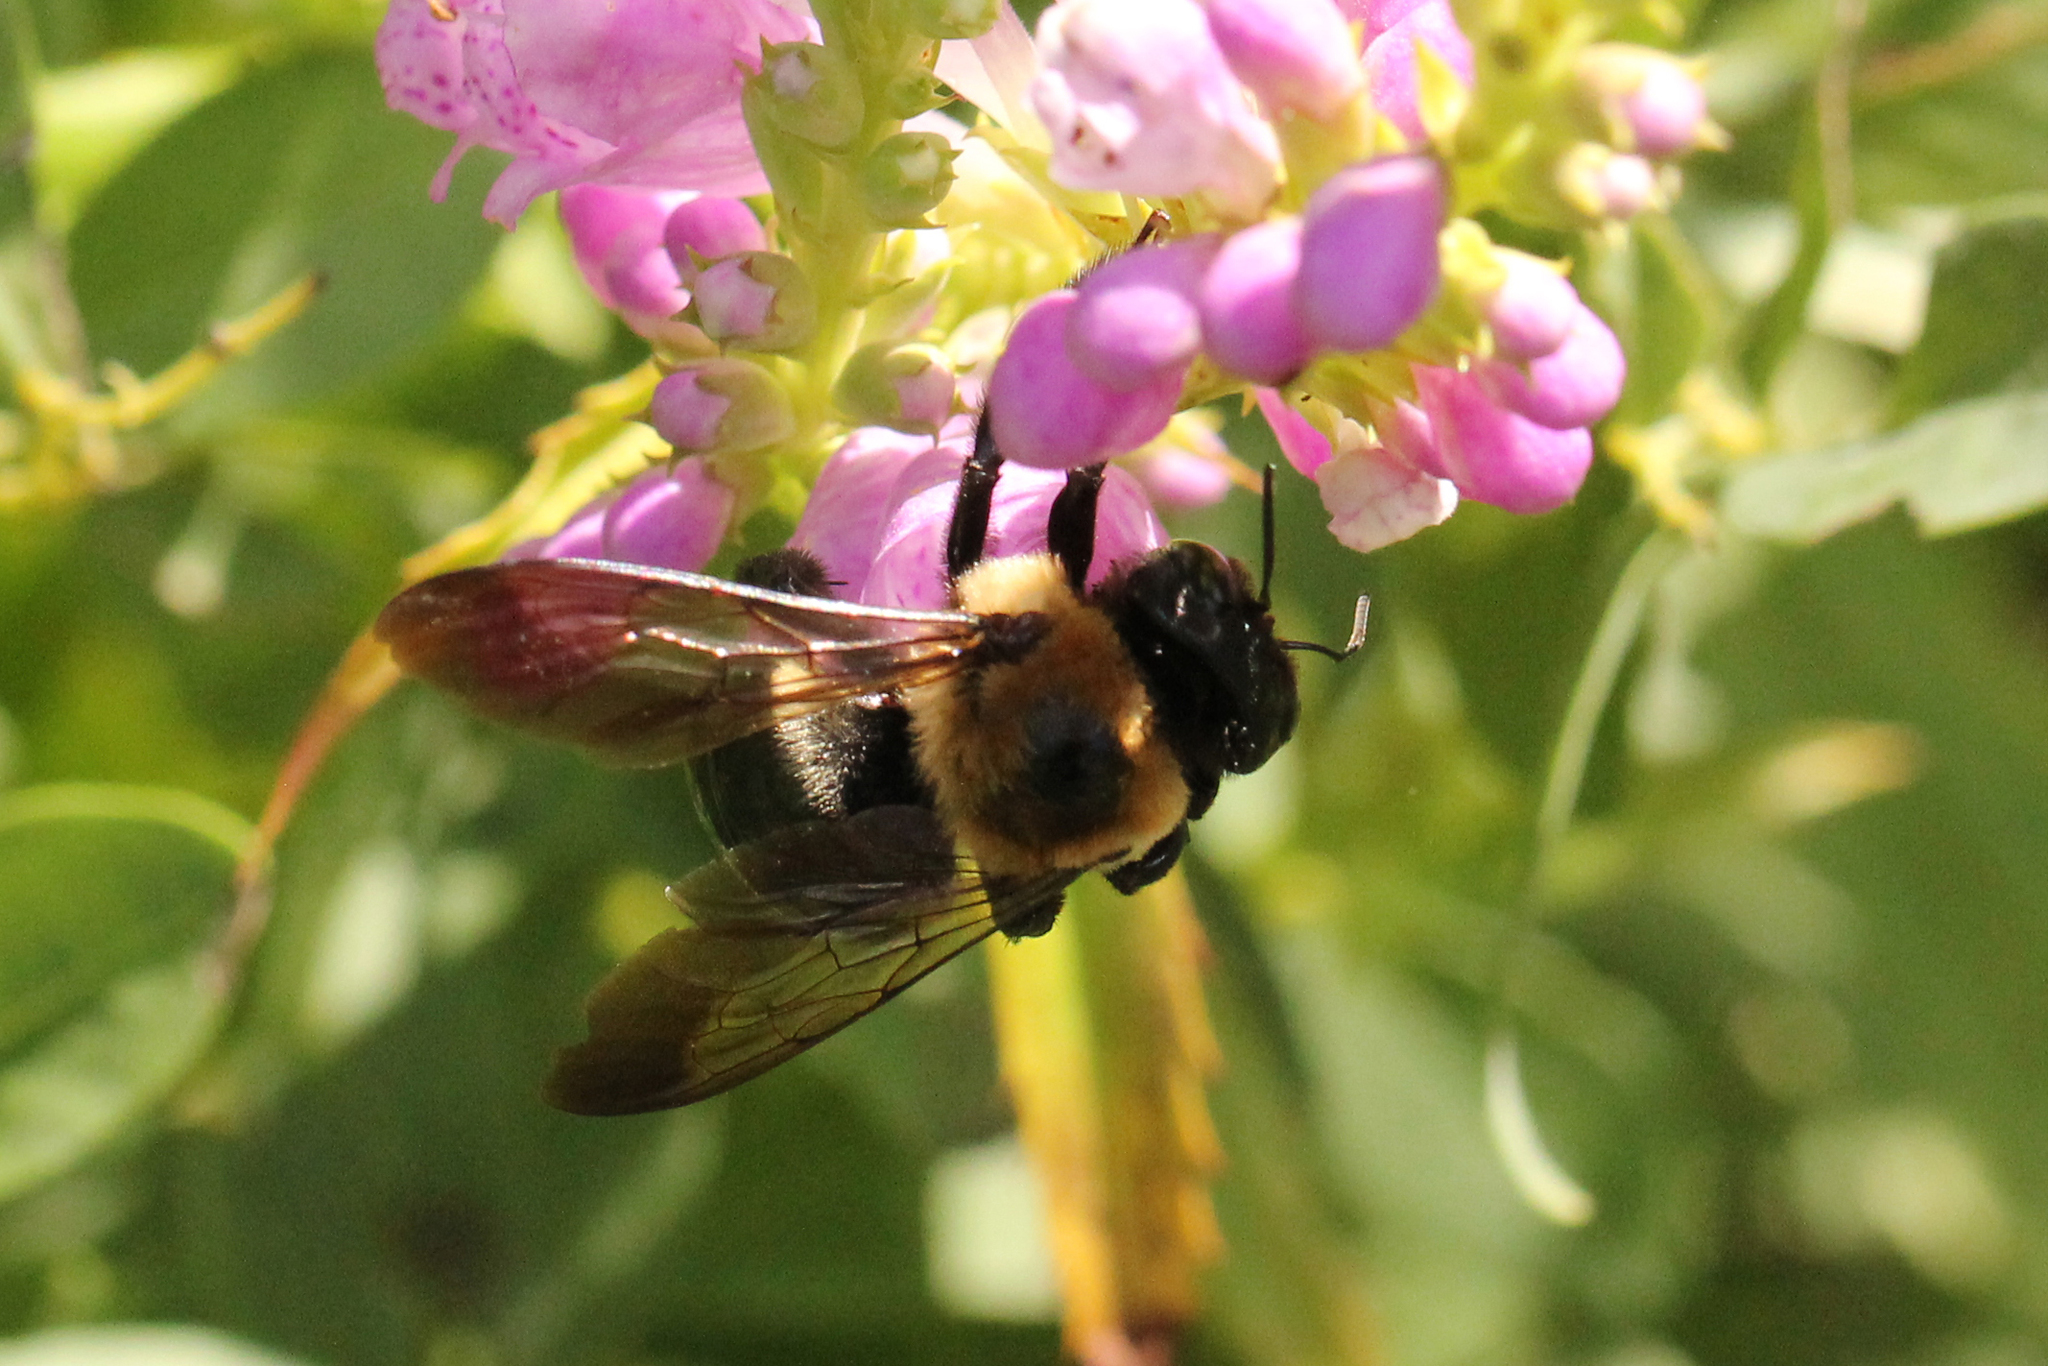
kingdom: Animalia
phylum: Arthropoda
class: Insecta
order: Hymenoptera
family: Apidae
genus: Xylocopa
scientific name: Xylocopa virginica
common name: Carpenter bee
